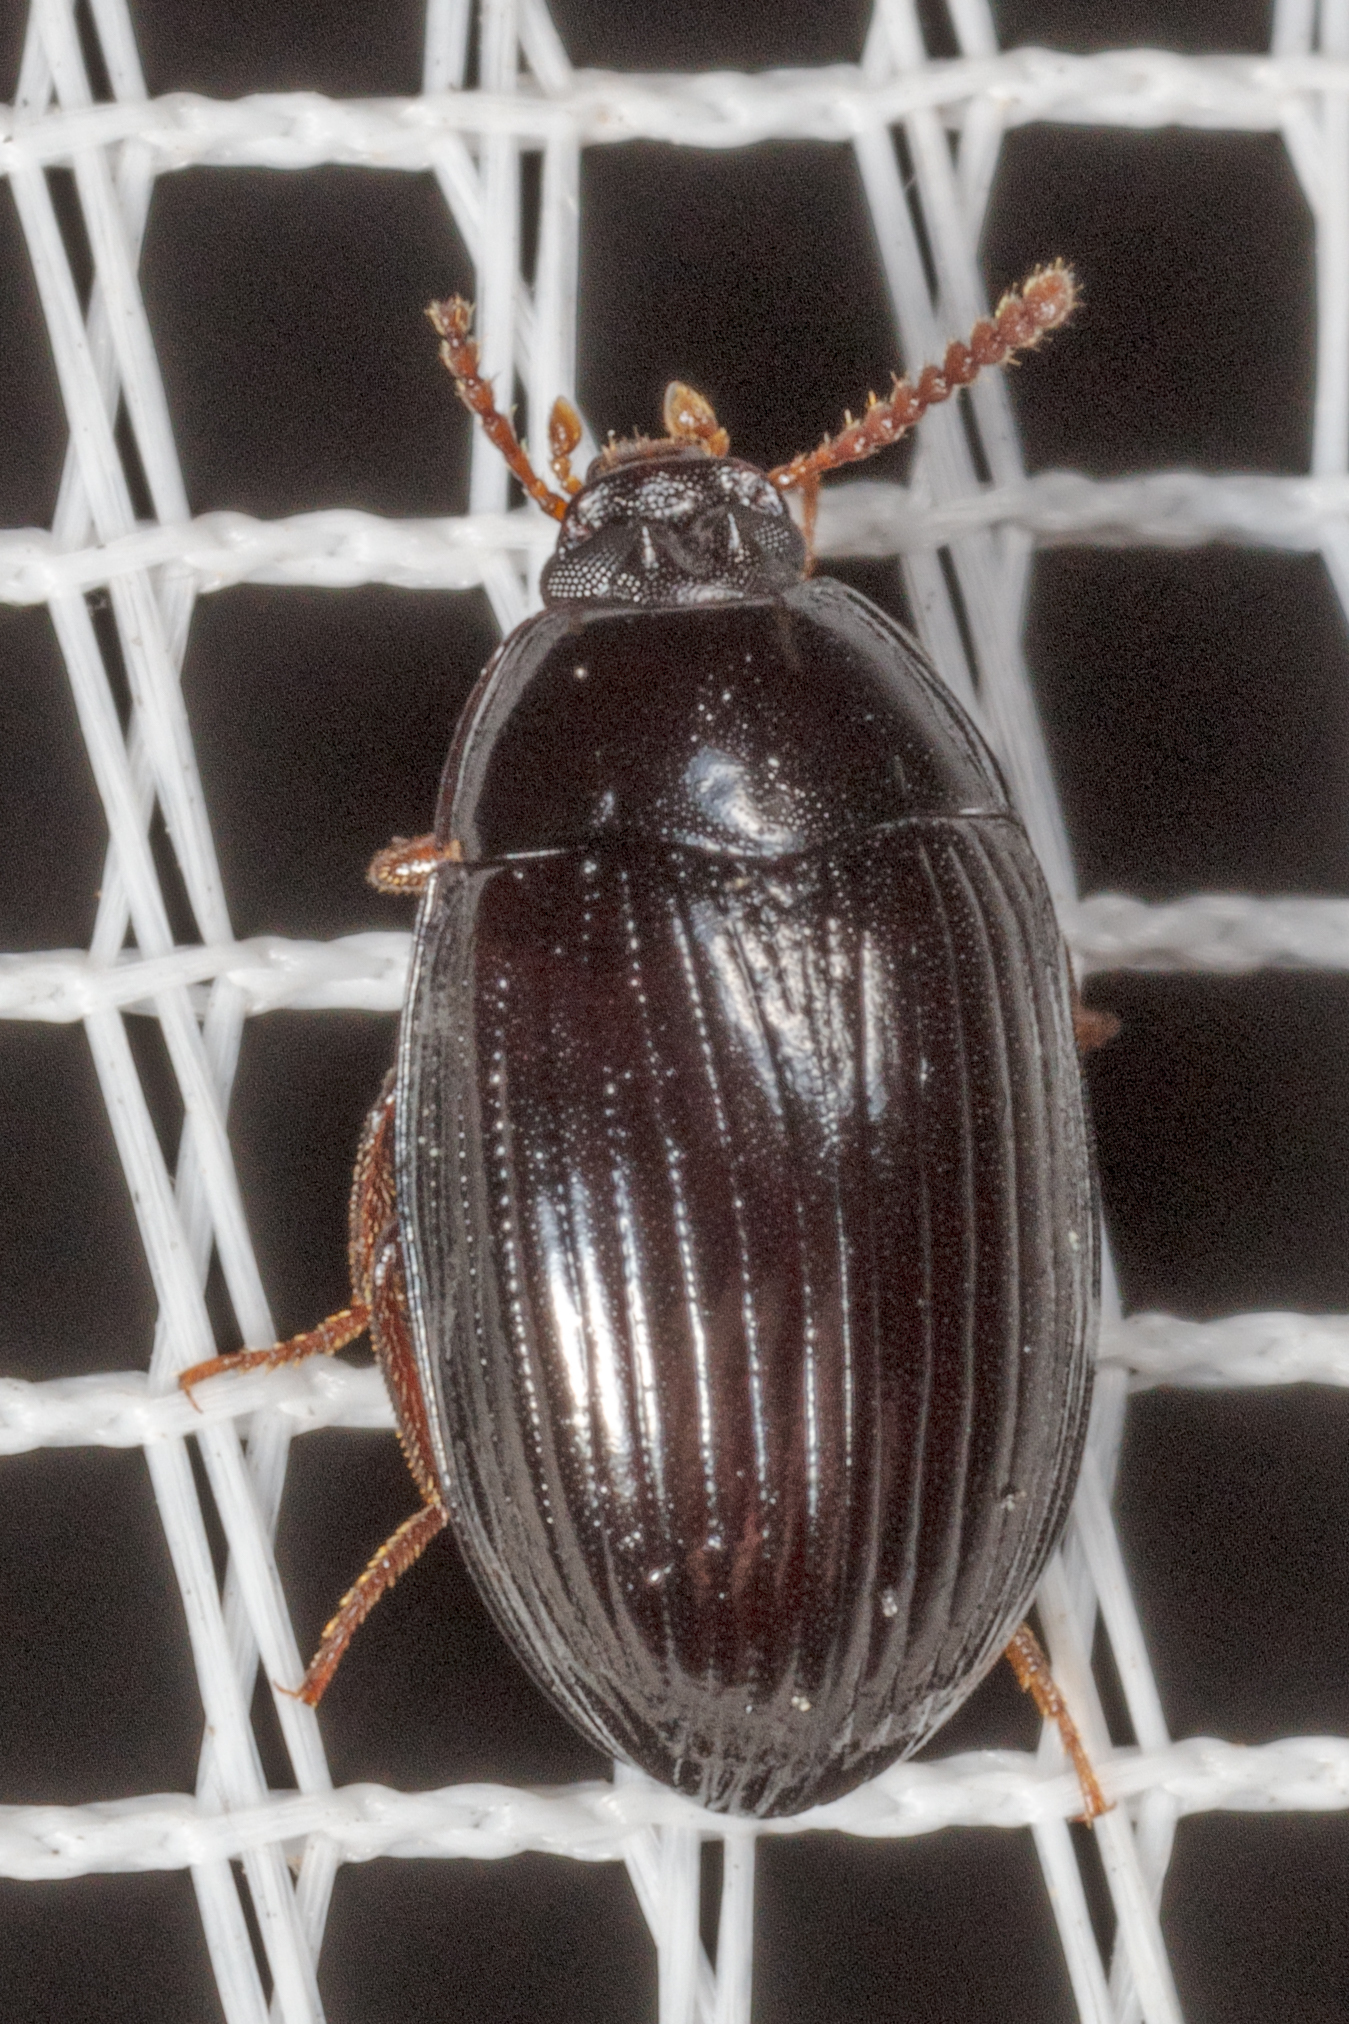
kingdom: Animalia
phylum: Arthropoda
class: Insecta
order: Coleoptera
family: Tenebrionidae
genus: Platydema
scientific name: Platydema excavata
